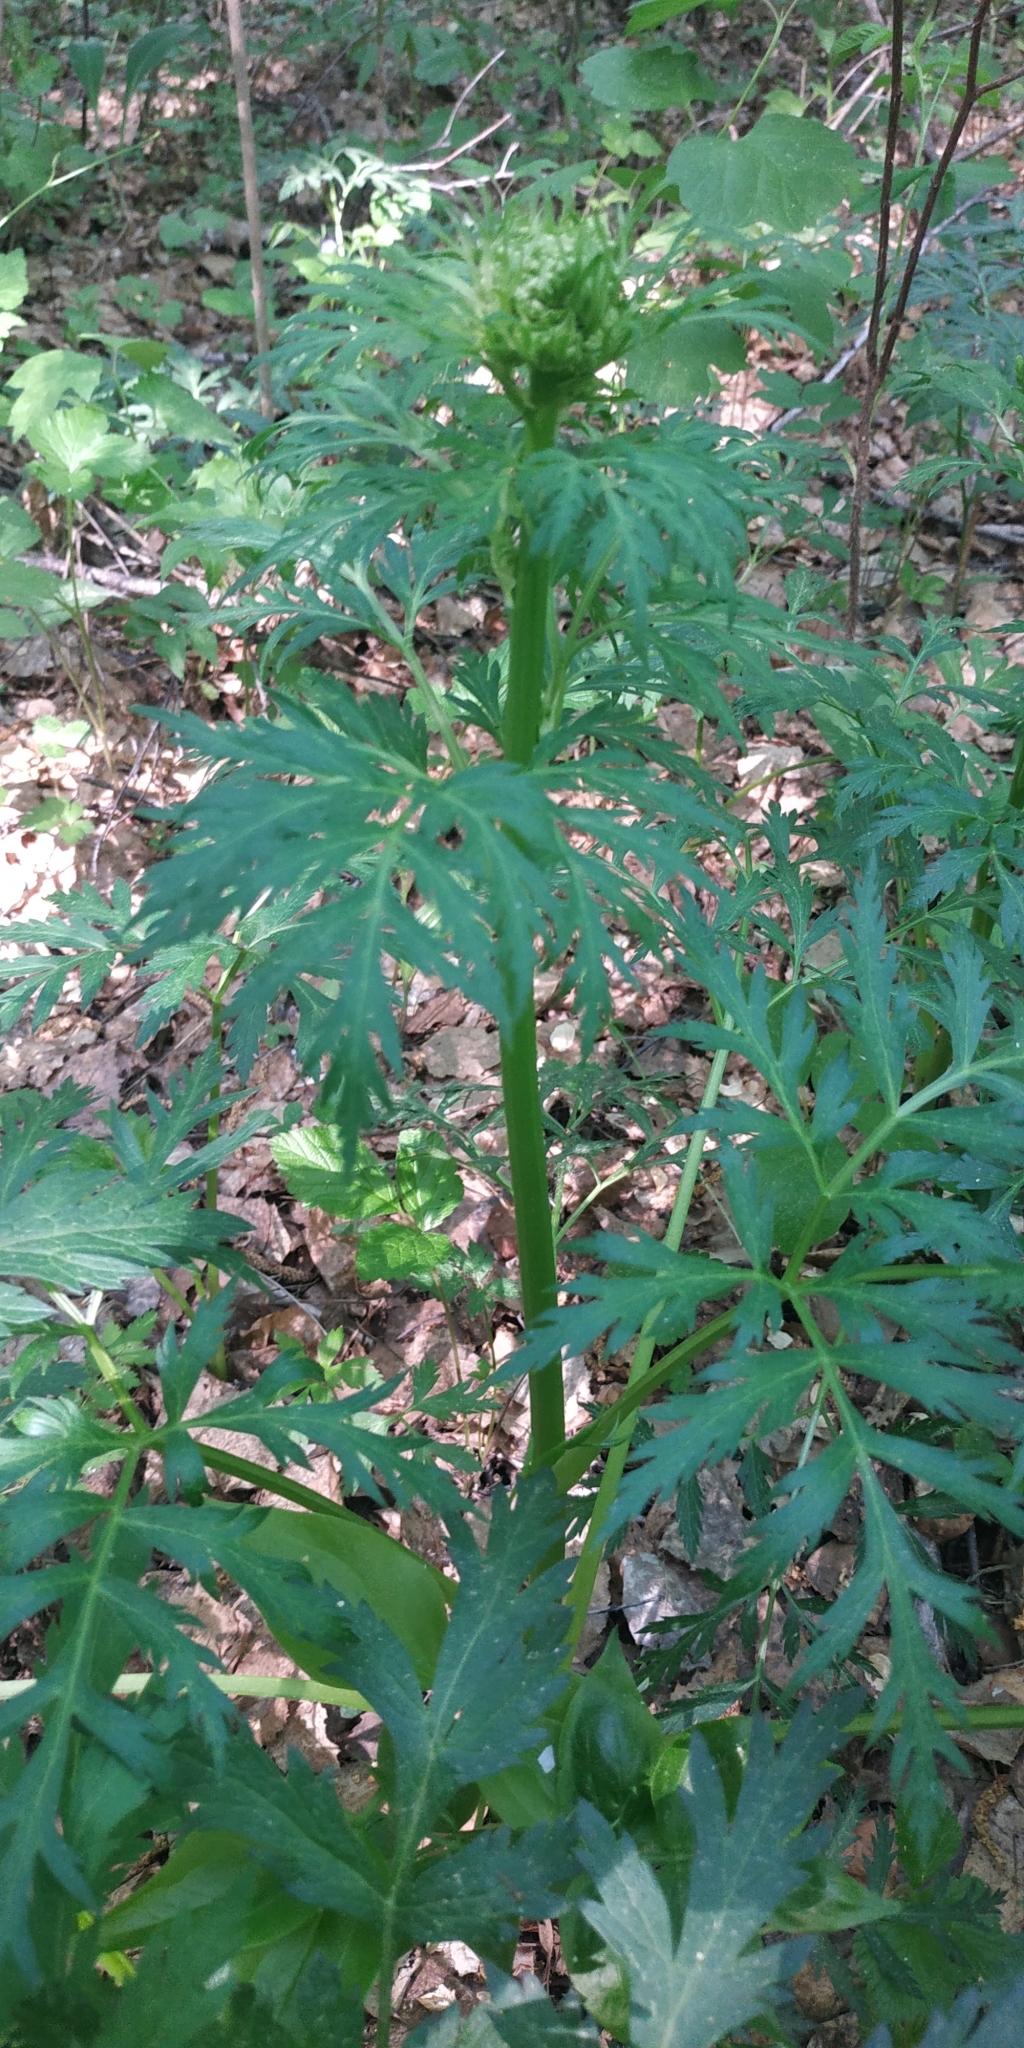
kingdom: Plantae
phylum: Tracheophyta
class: Magnoliopsida
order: Apiales
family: Apiaceae
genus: Pleurospermum
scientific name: Pleurospermum uralense
